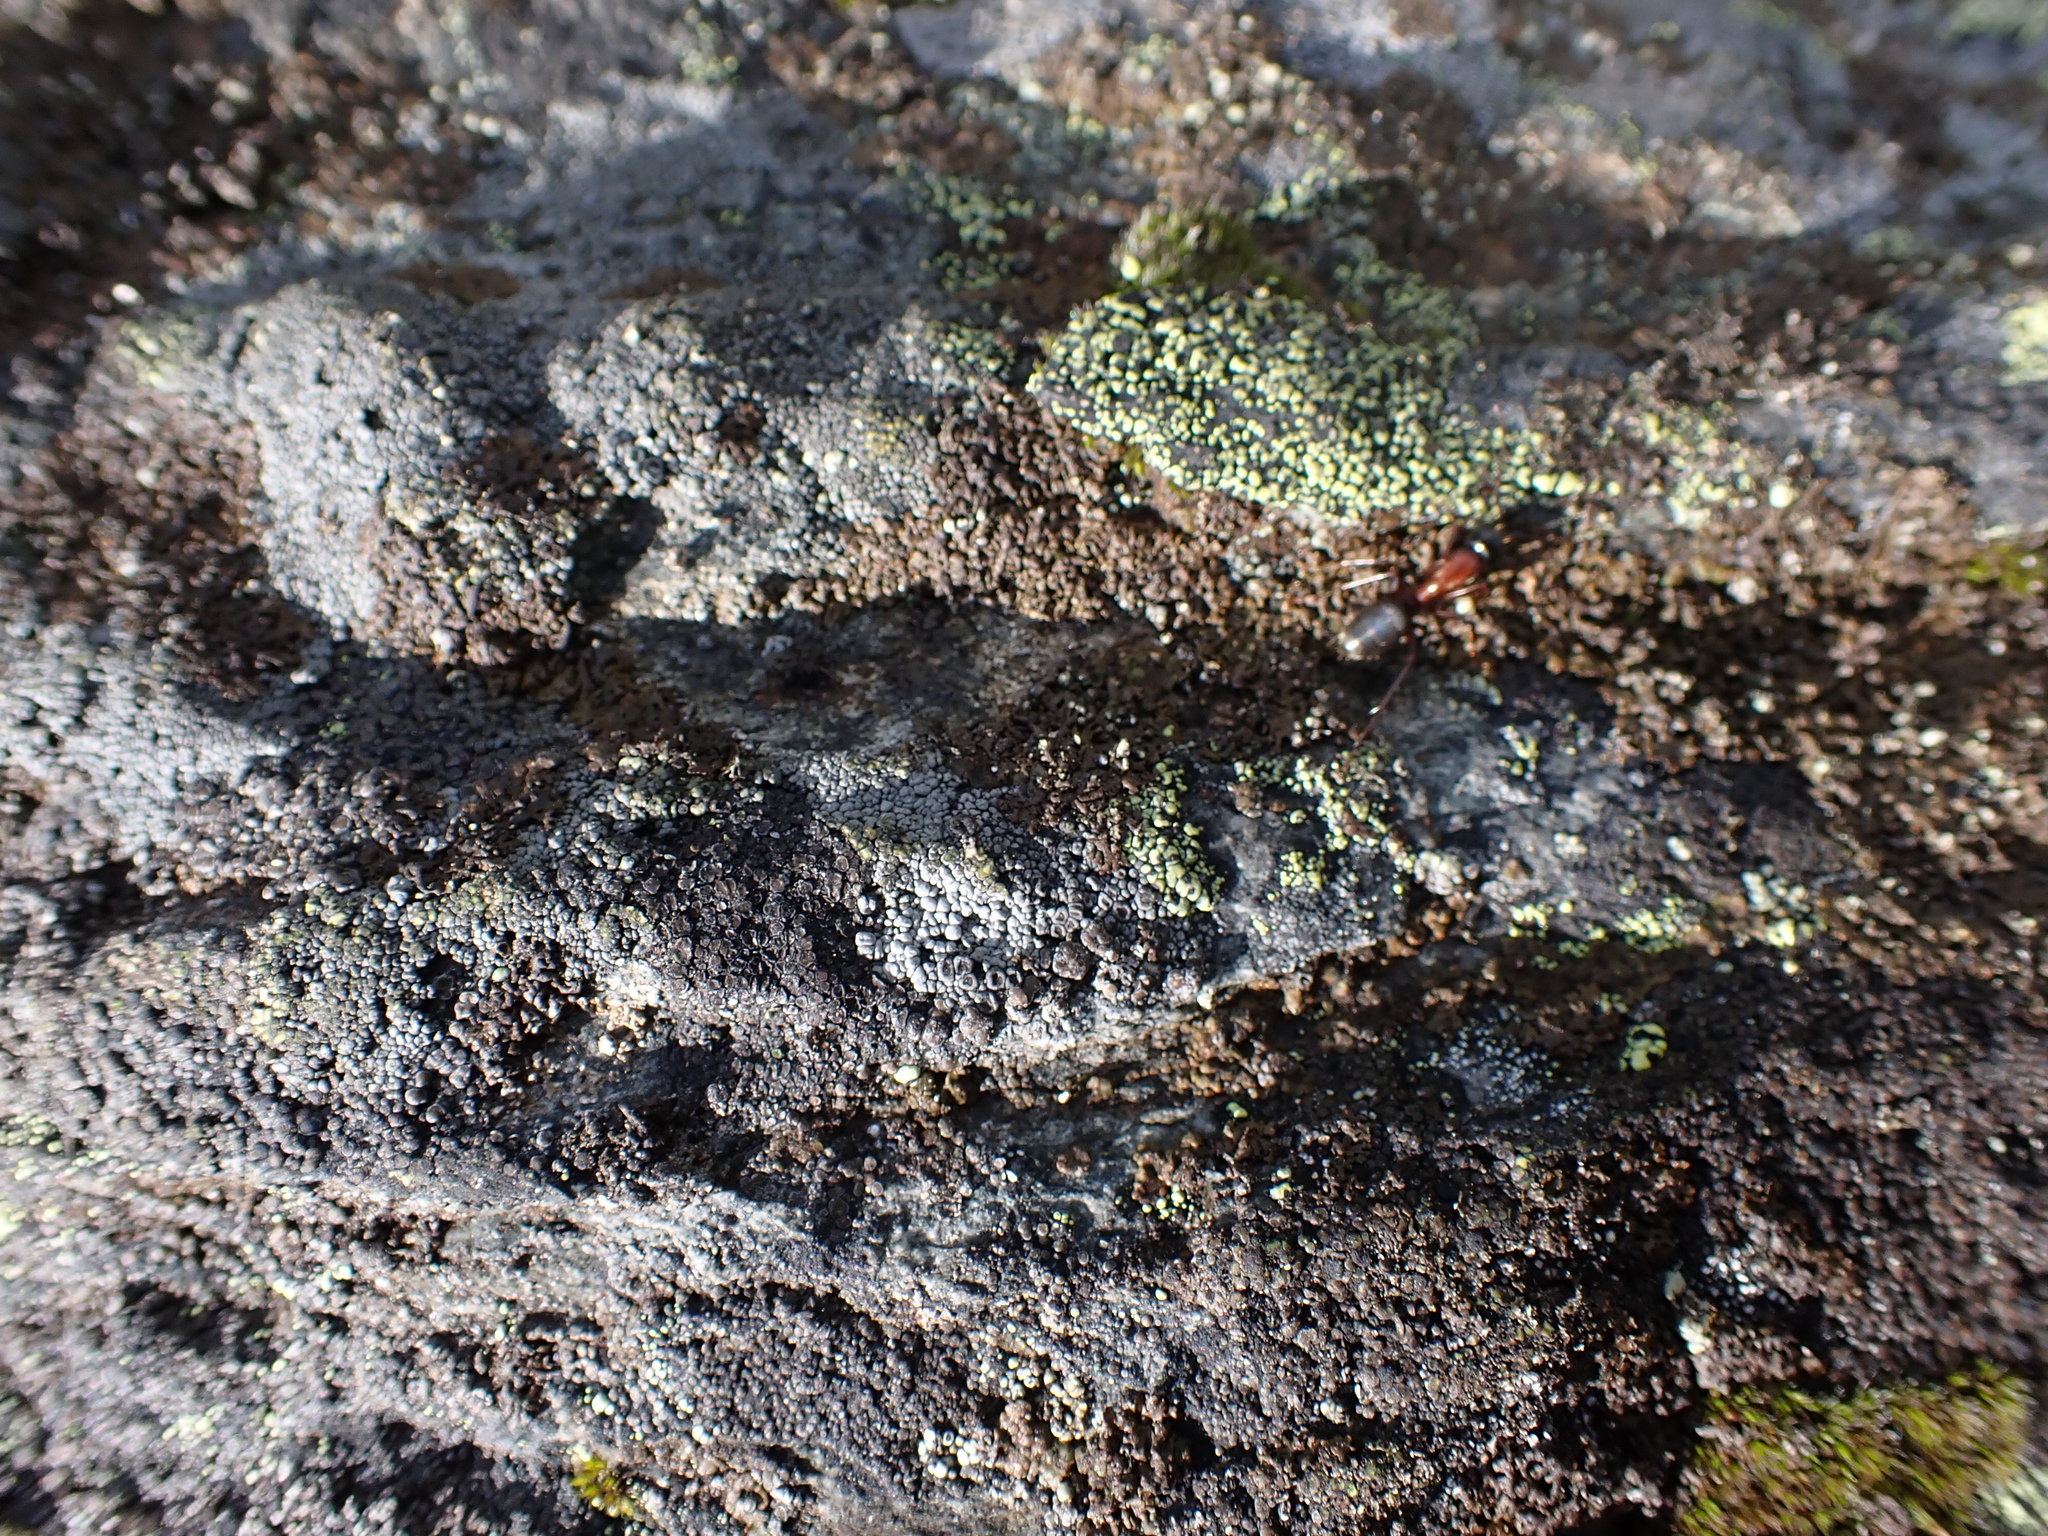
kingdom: Animalia
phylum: Arthropoda
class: Insecta
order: Hymenoptera
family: Formicidae
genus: Camponotus
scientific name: Camponotus vicinus
